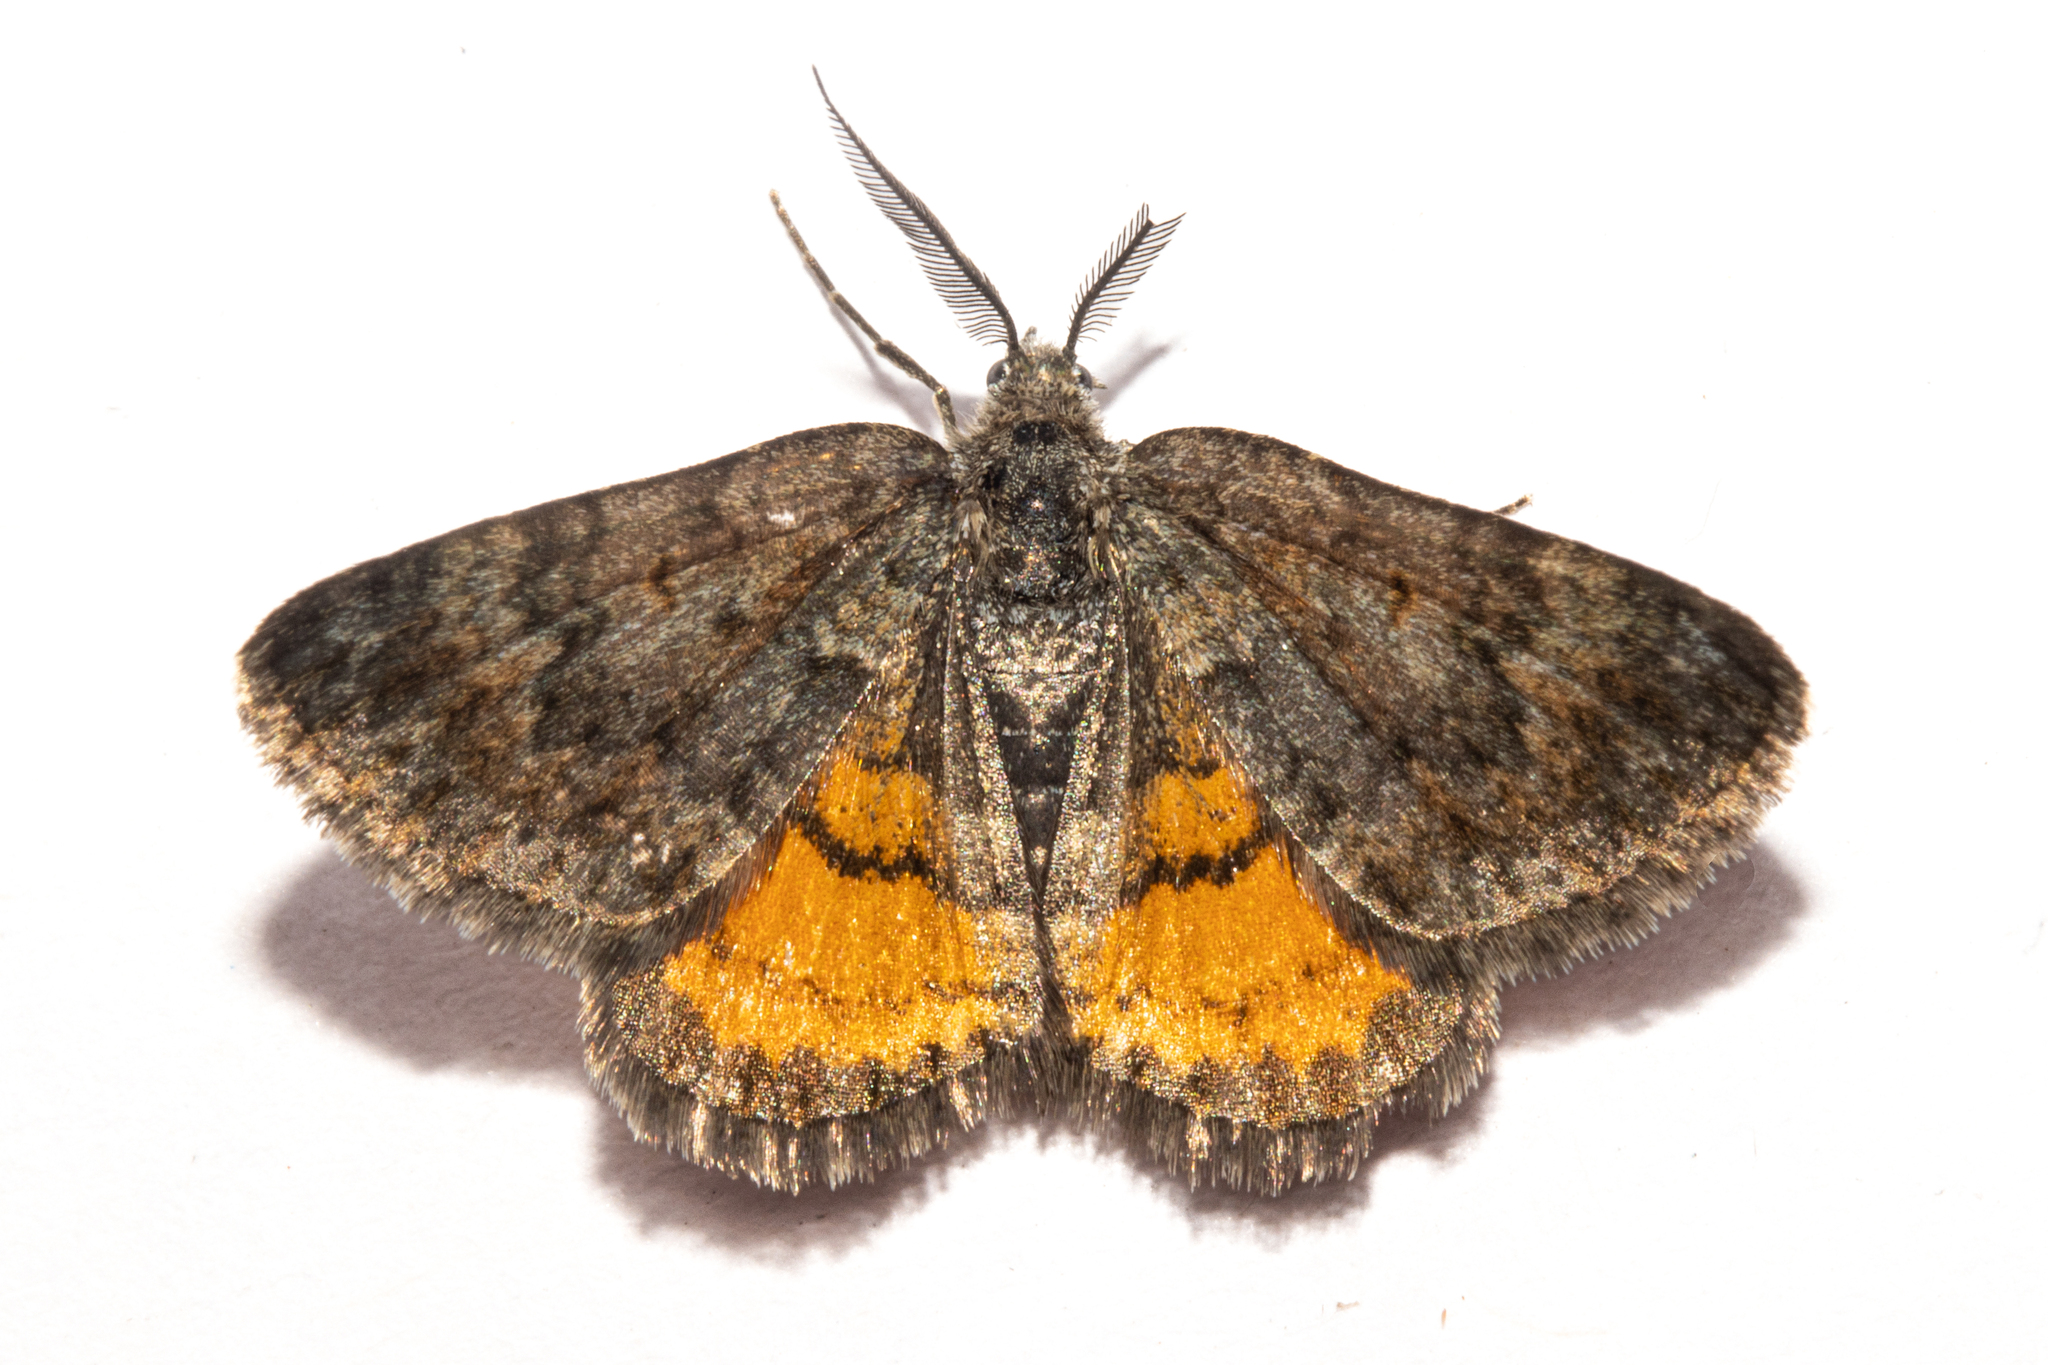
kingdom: Animalia
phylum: Arthropoda
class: Insecta
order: Lepidoptera
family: Geometridae
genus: Paranotoreas
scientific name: Paranotoreas brephosata
